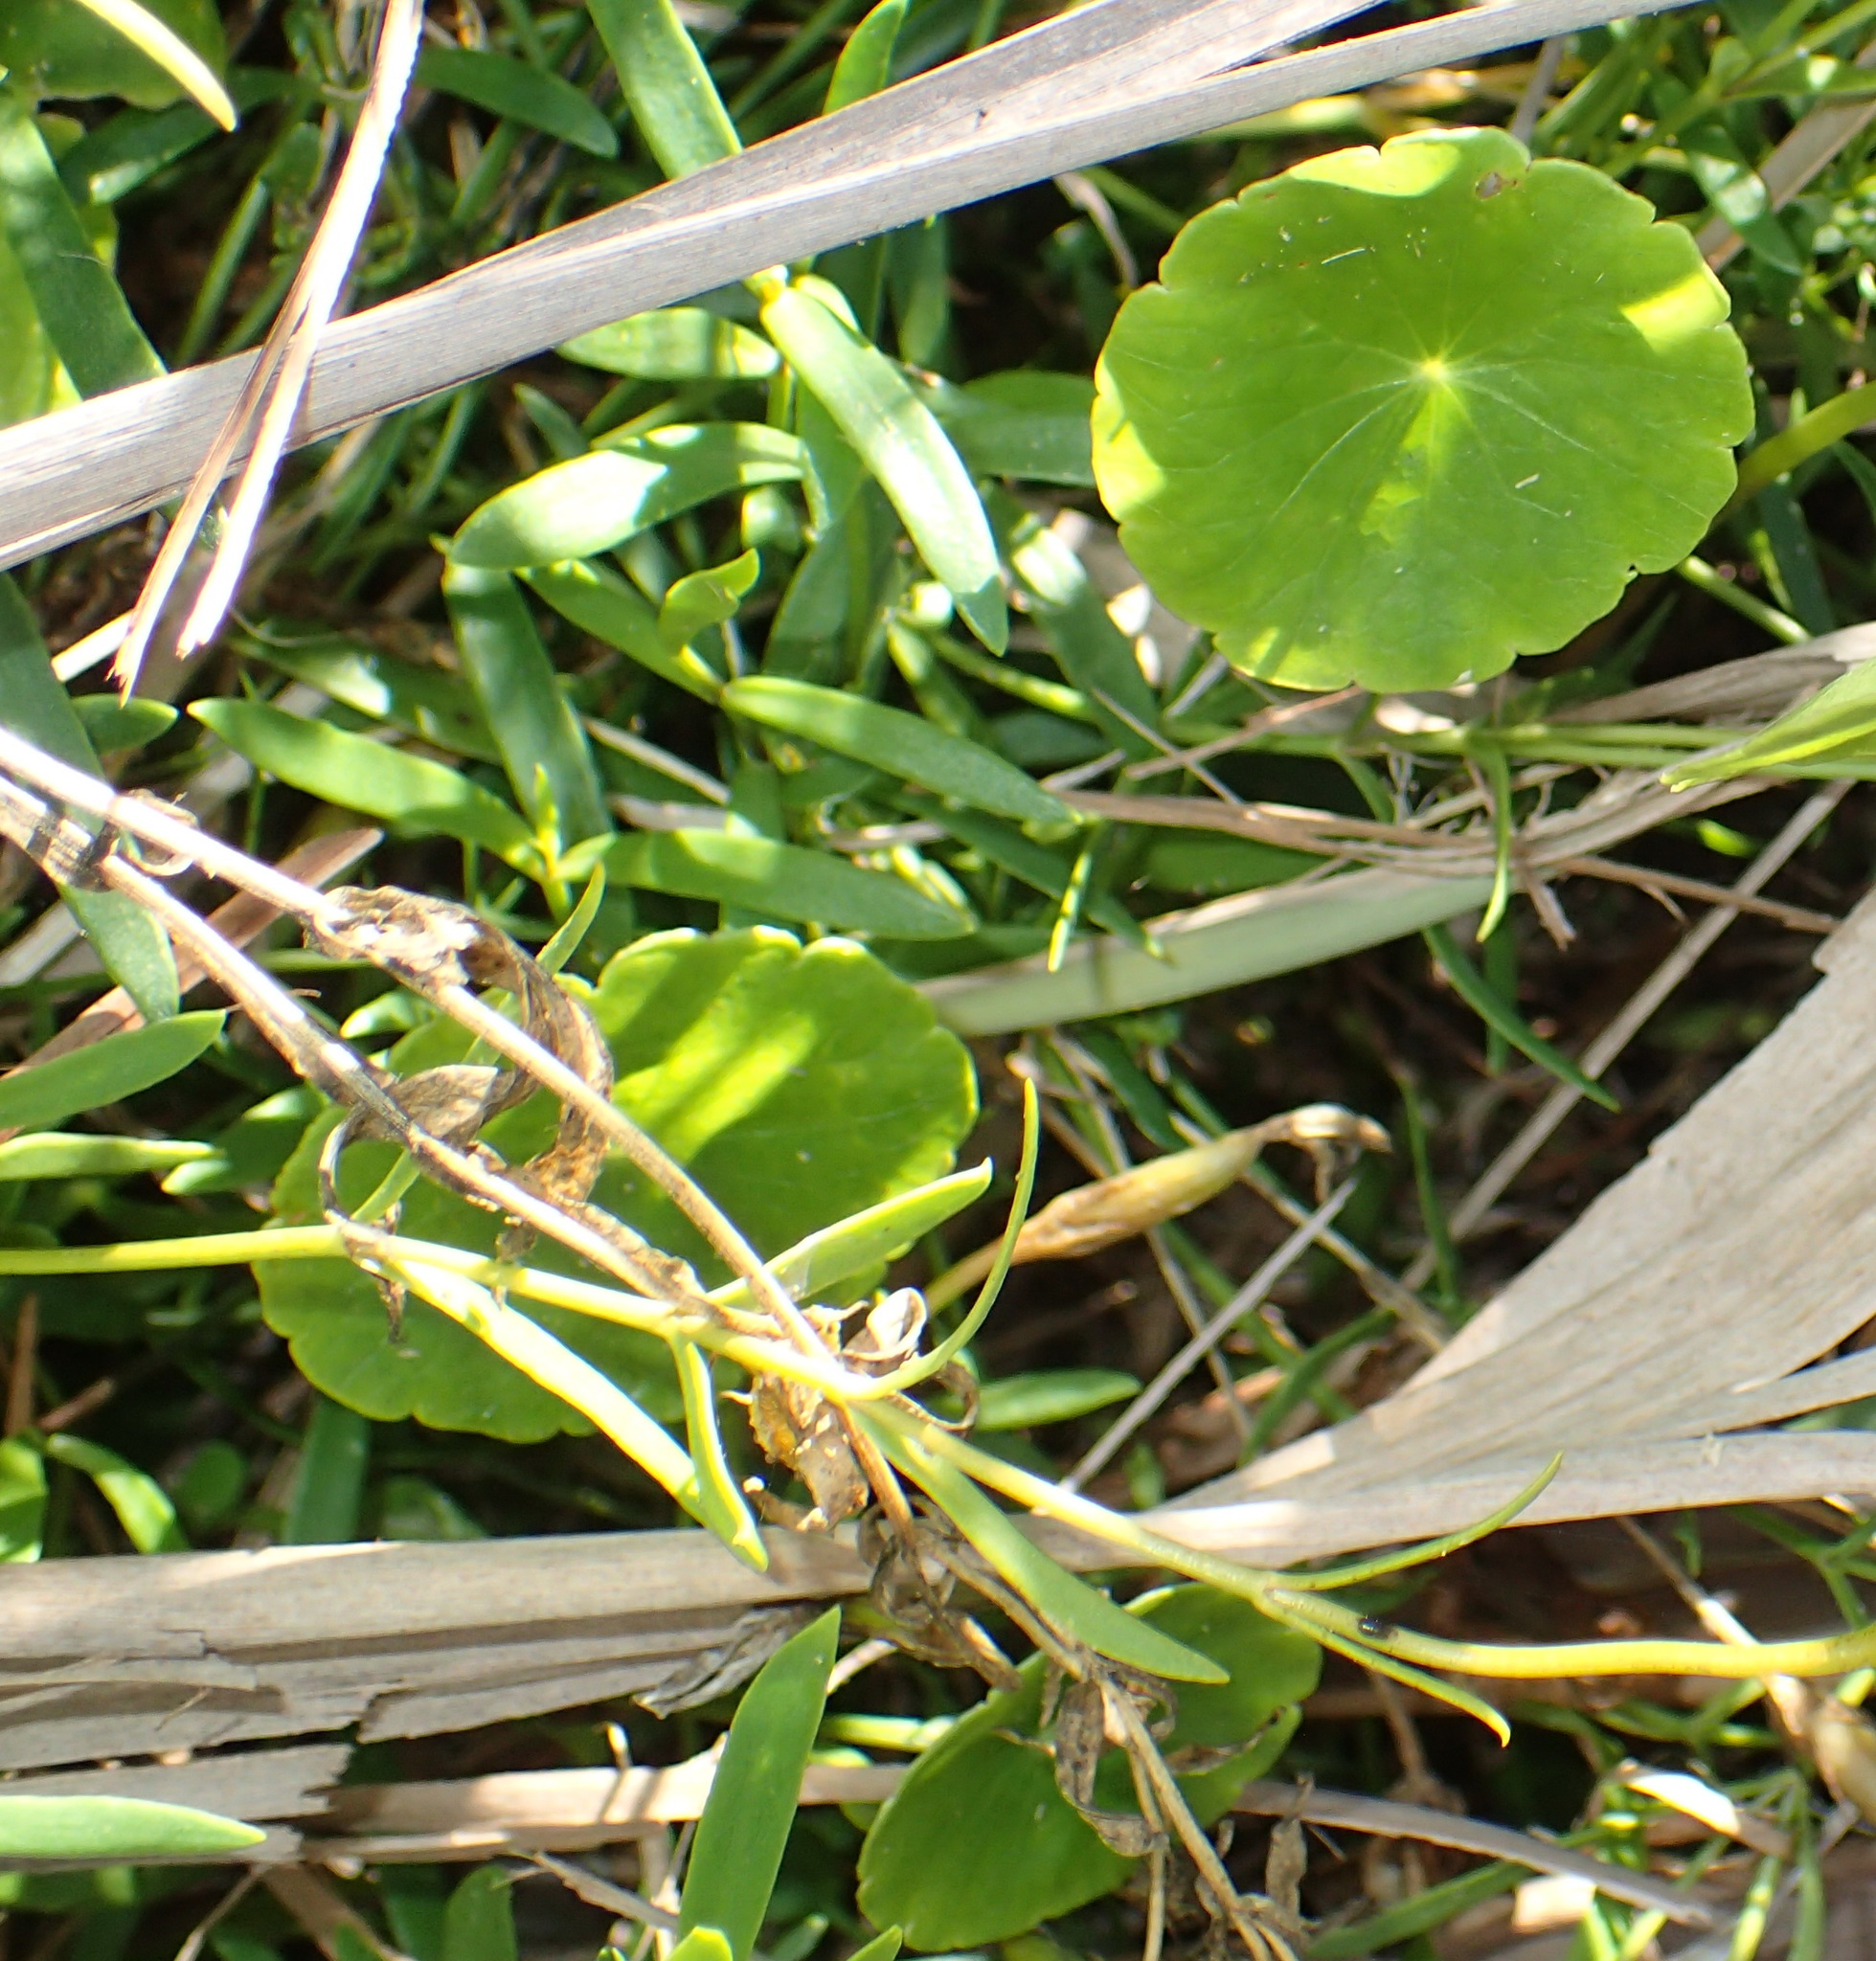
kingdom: Plantae
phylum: Tracheophyta
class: Magnoliopsida
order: Apiales
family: Araliaceae
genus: Hydrocotyle
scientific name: Hydrocotyle bonariensis
